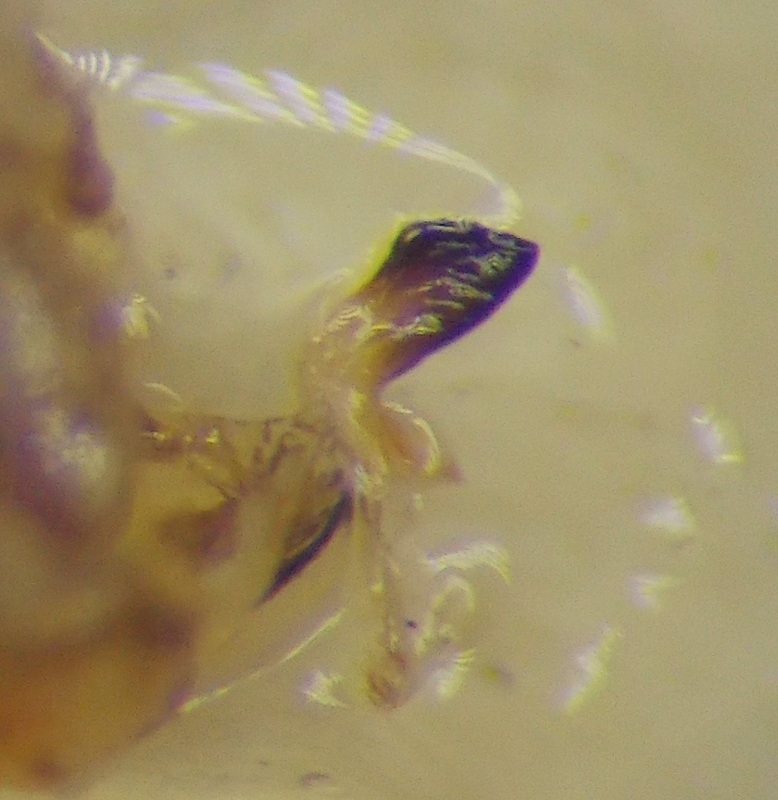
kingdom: Animalia
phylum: Arthropoda
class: Insecta
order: Hemiptera
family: Rhopalidae
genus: Stictopleurus
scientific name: Stictopleurus abutilon
